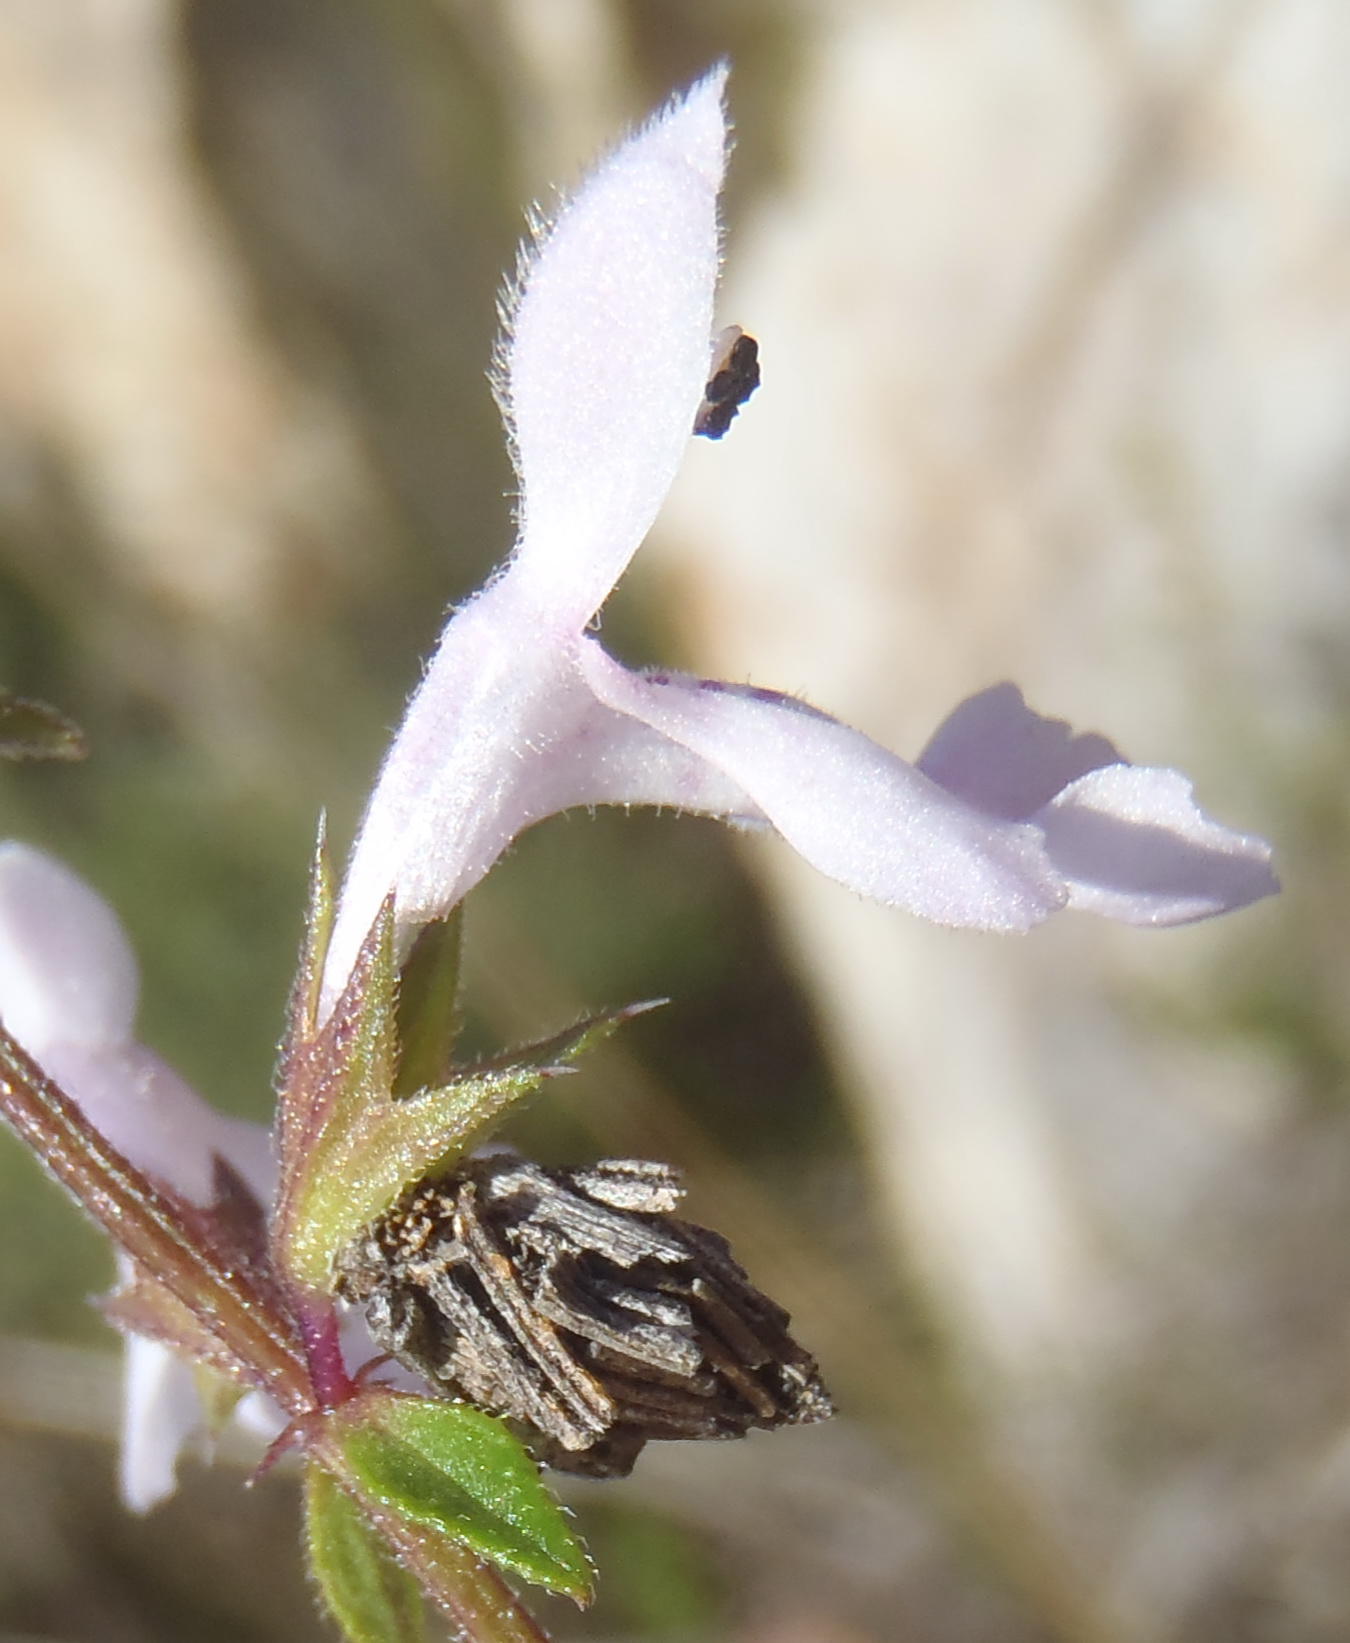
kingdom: Plantae
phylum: Tracheophyta
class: Magnoliopsida
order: Lamiales
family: Lamiaceae
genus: Stachys
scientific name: Stachys aethiopica
